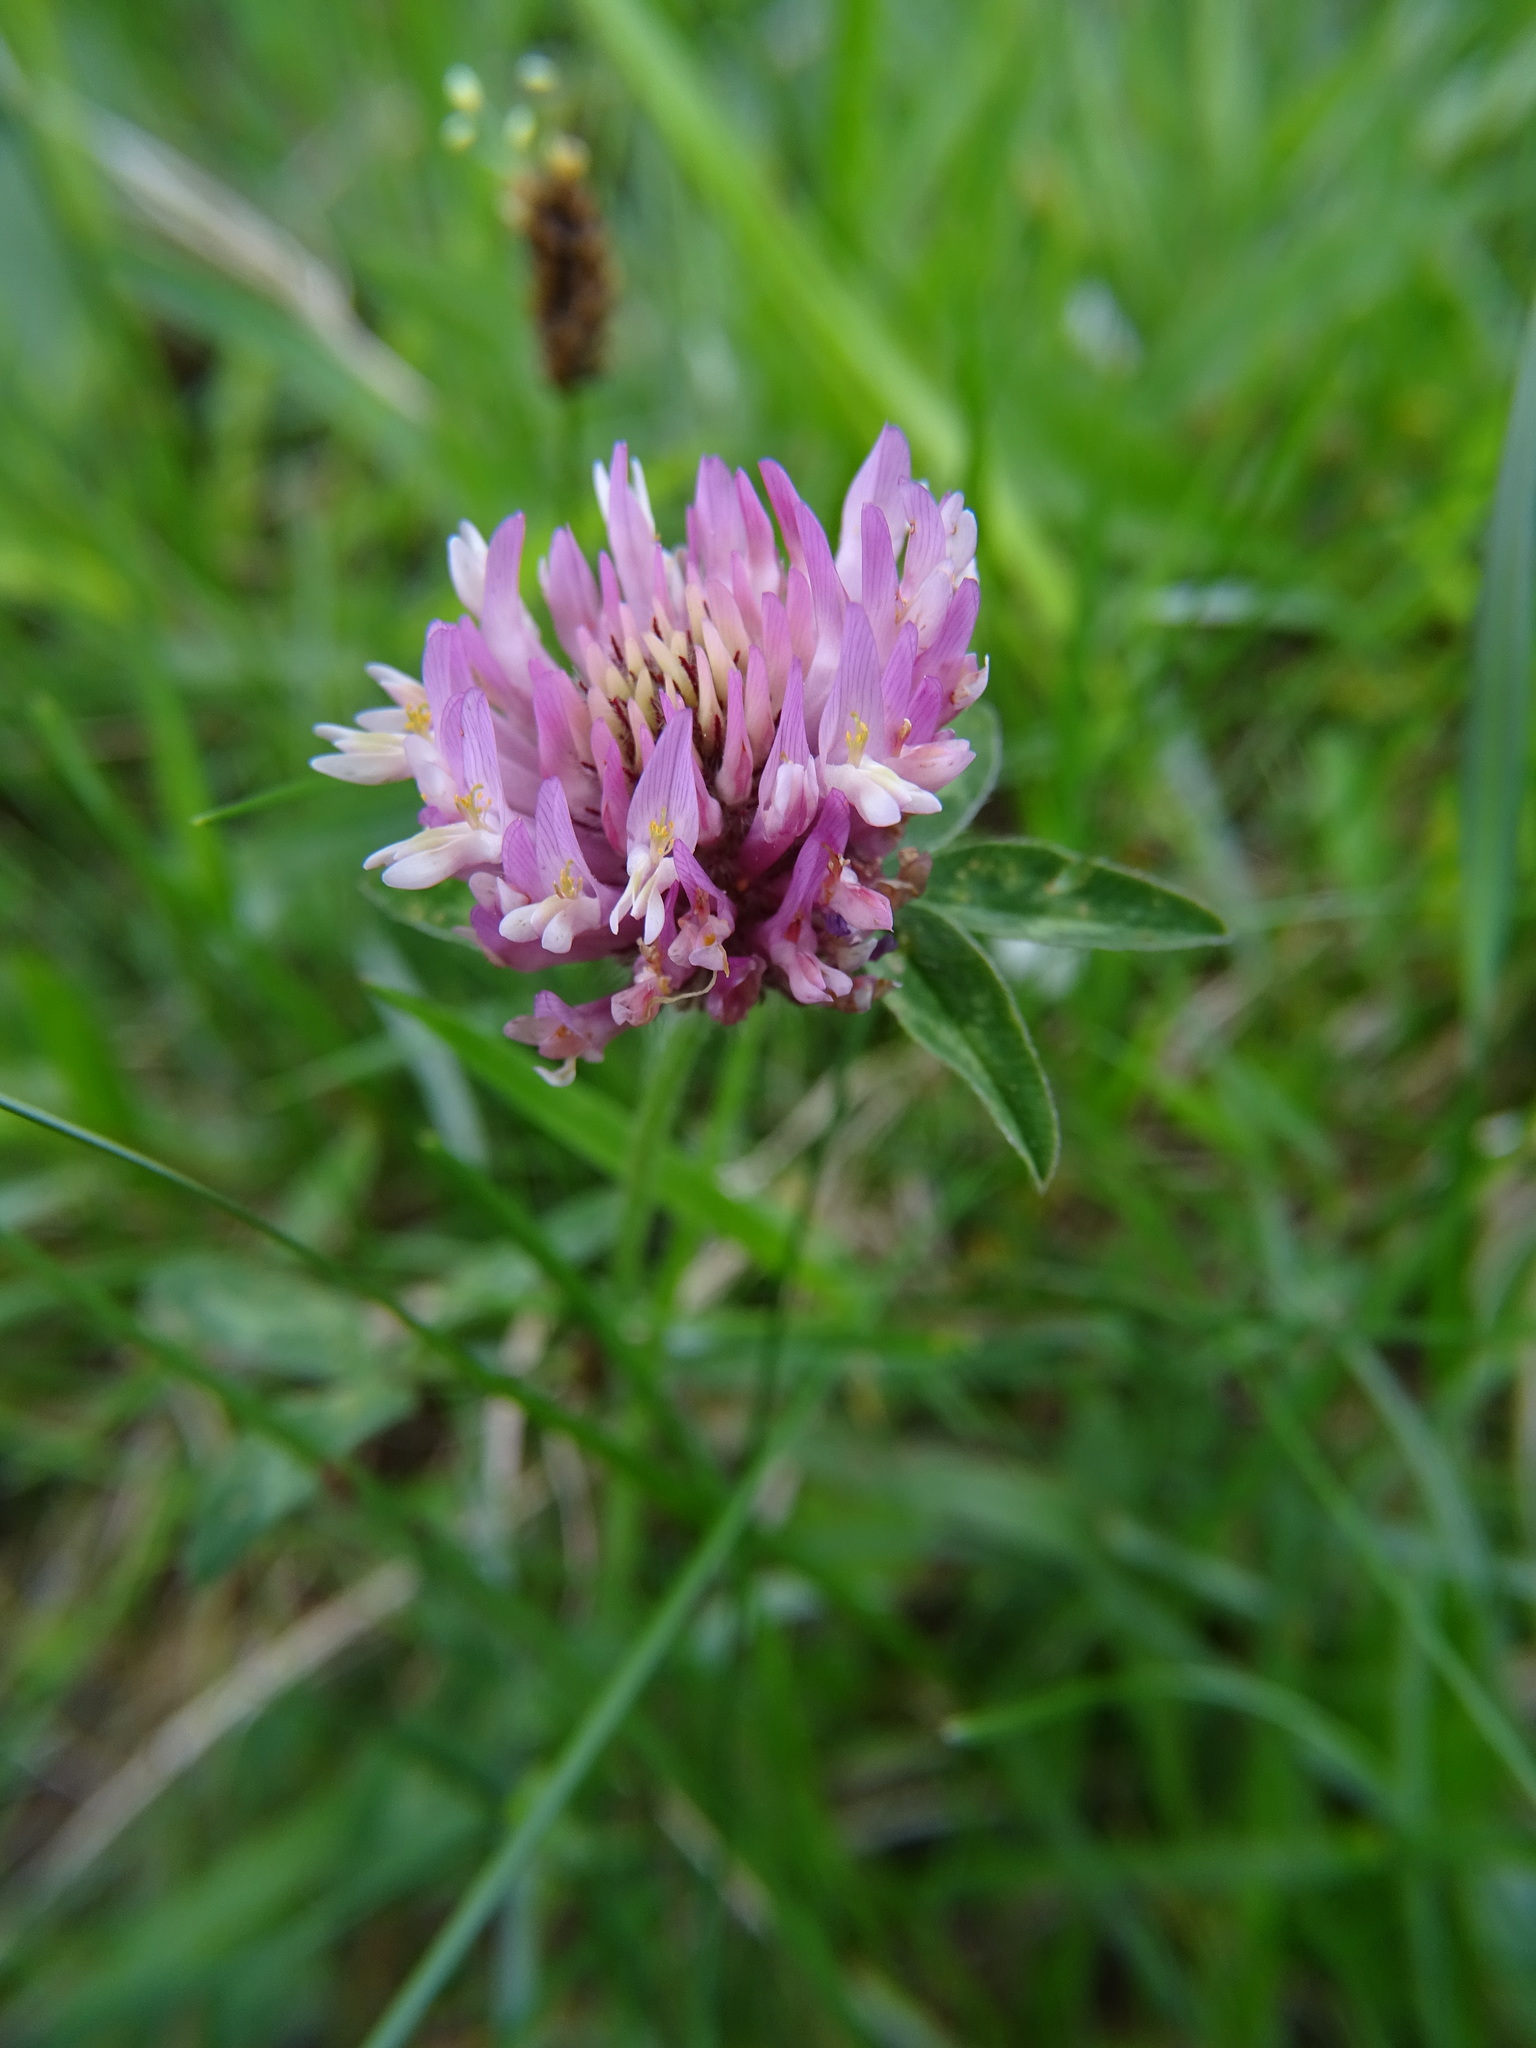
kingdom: Plantae
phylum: Tracheophyta
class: Magnoliopsida
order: Fabales
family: Fabaceae
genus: Trifolium
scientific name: Trifolium pratense
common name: Red clover
